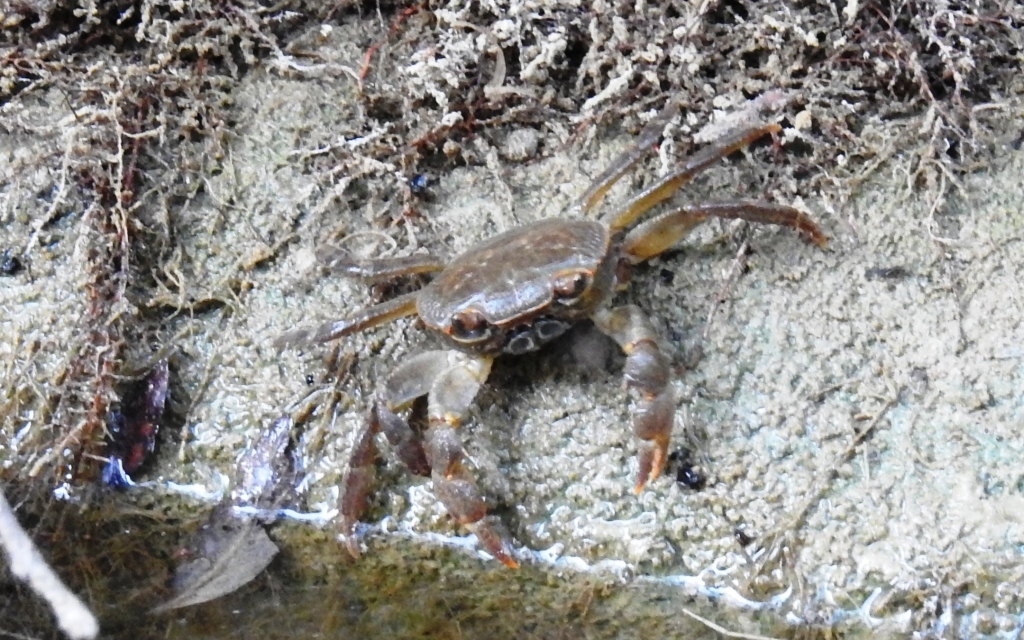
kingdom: Animalia
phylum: Arthropoda
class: Malacostraca
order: Decapoda
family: Potamidae
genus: Potamon
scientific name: Potamon algeriense
